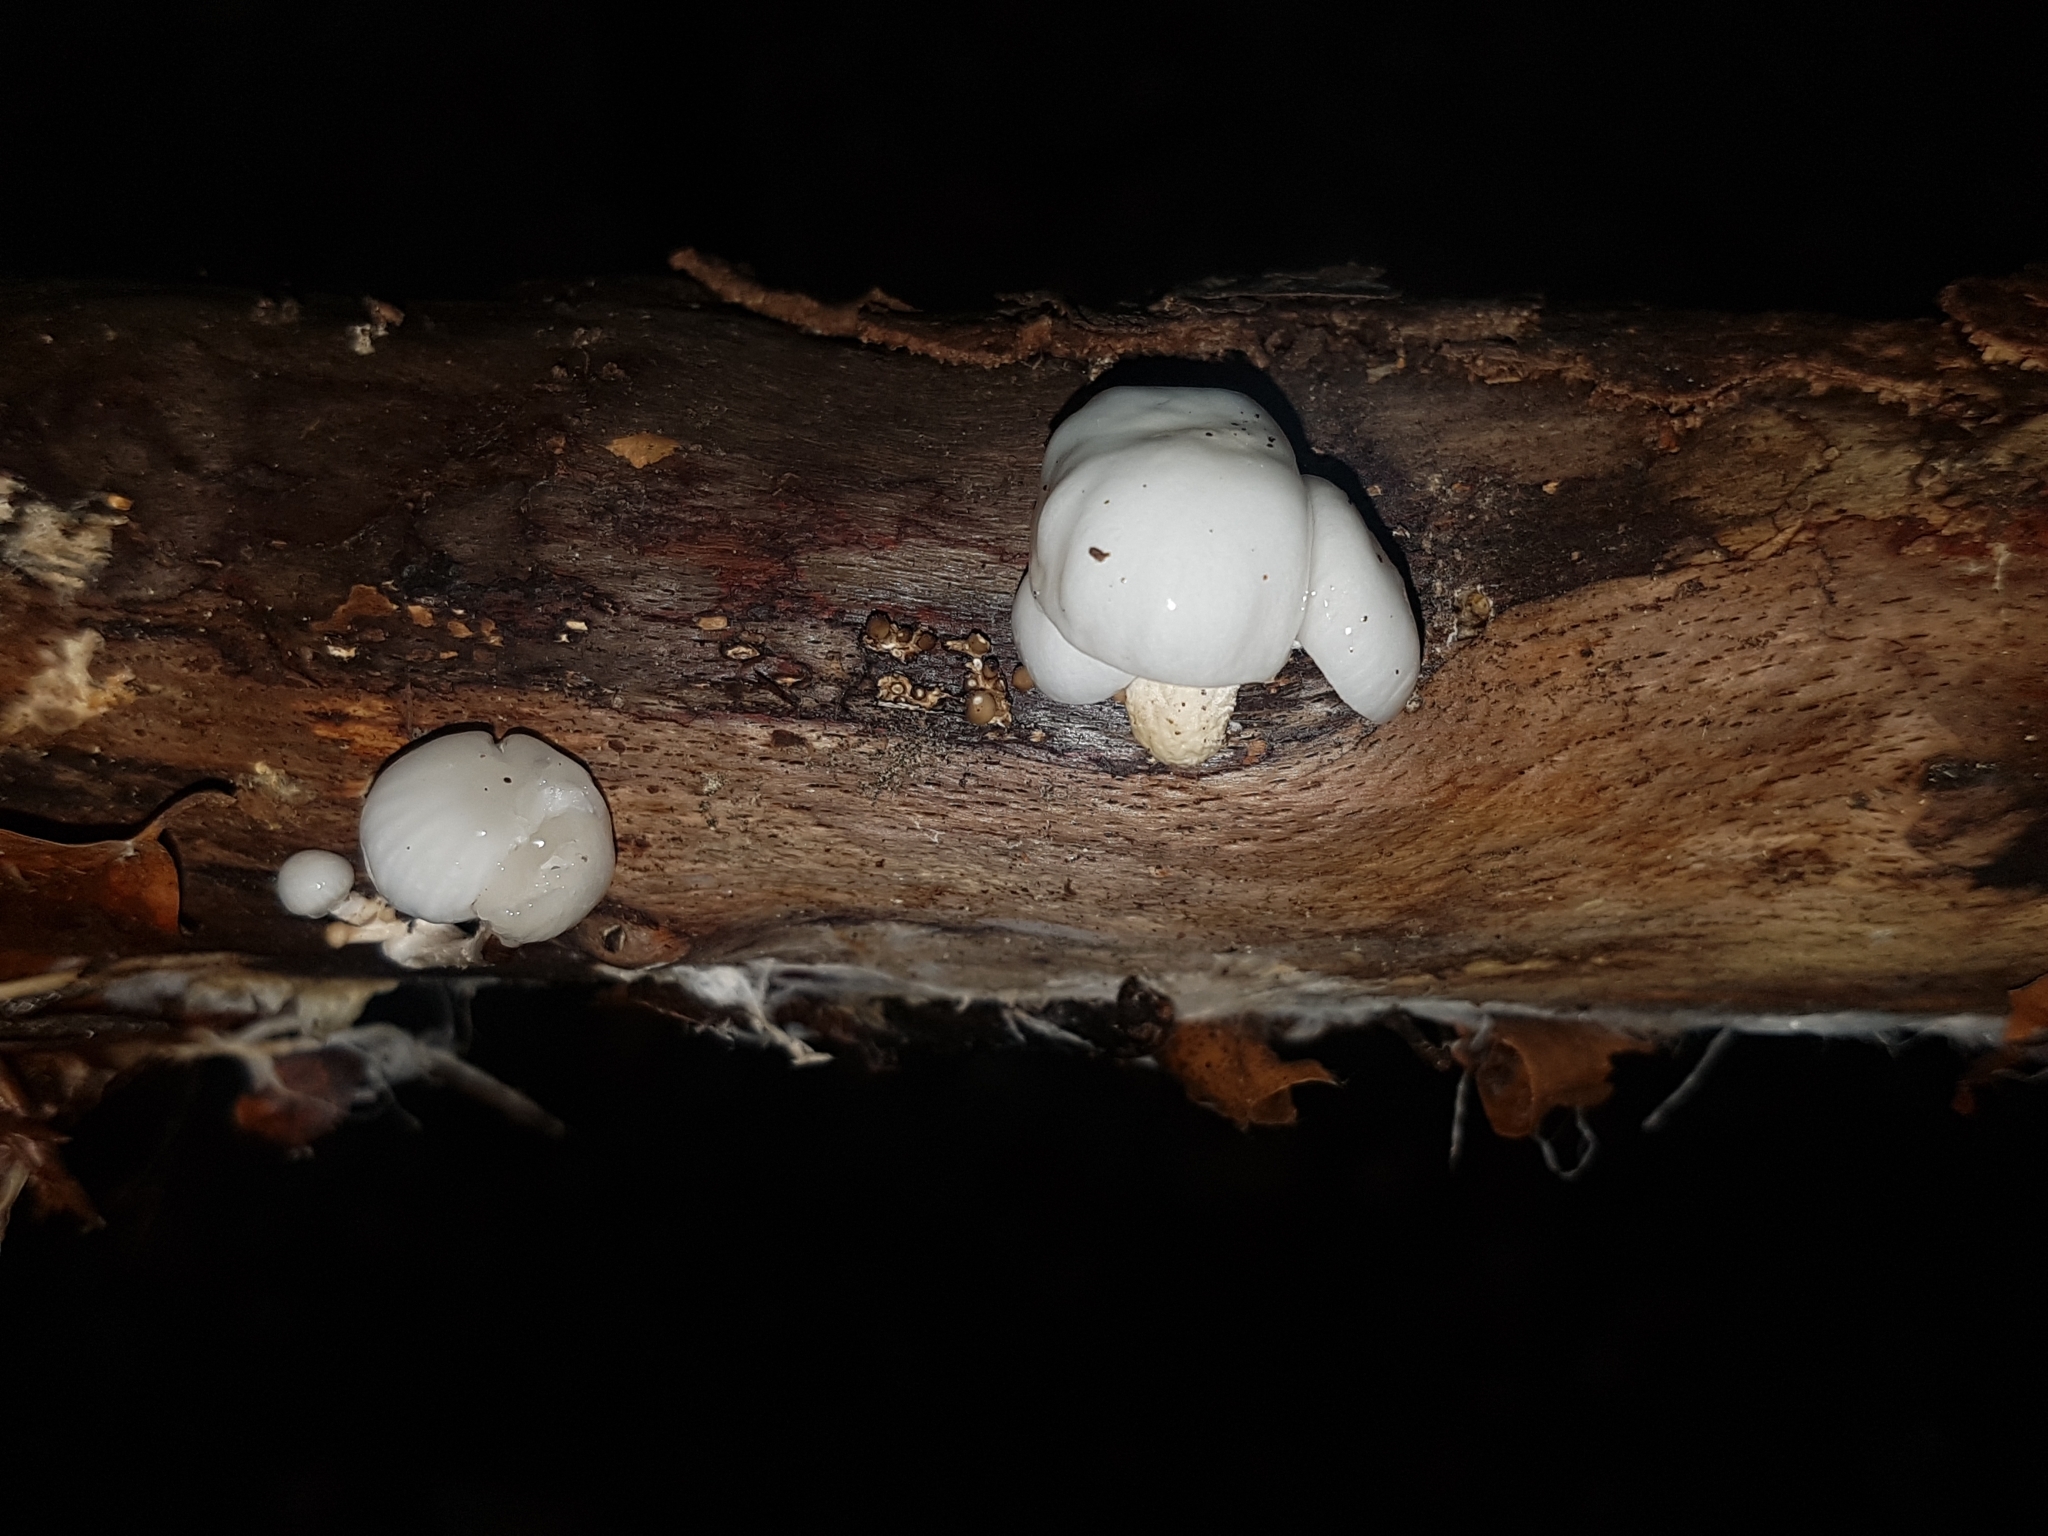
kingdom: Fungi
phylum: Basidiomycota
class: Agaricomycetes
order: Agaricales
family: Physalacriaceae
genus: Mucidula
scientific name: Mucidula mucida
